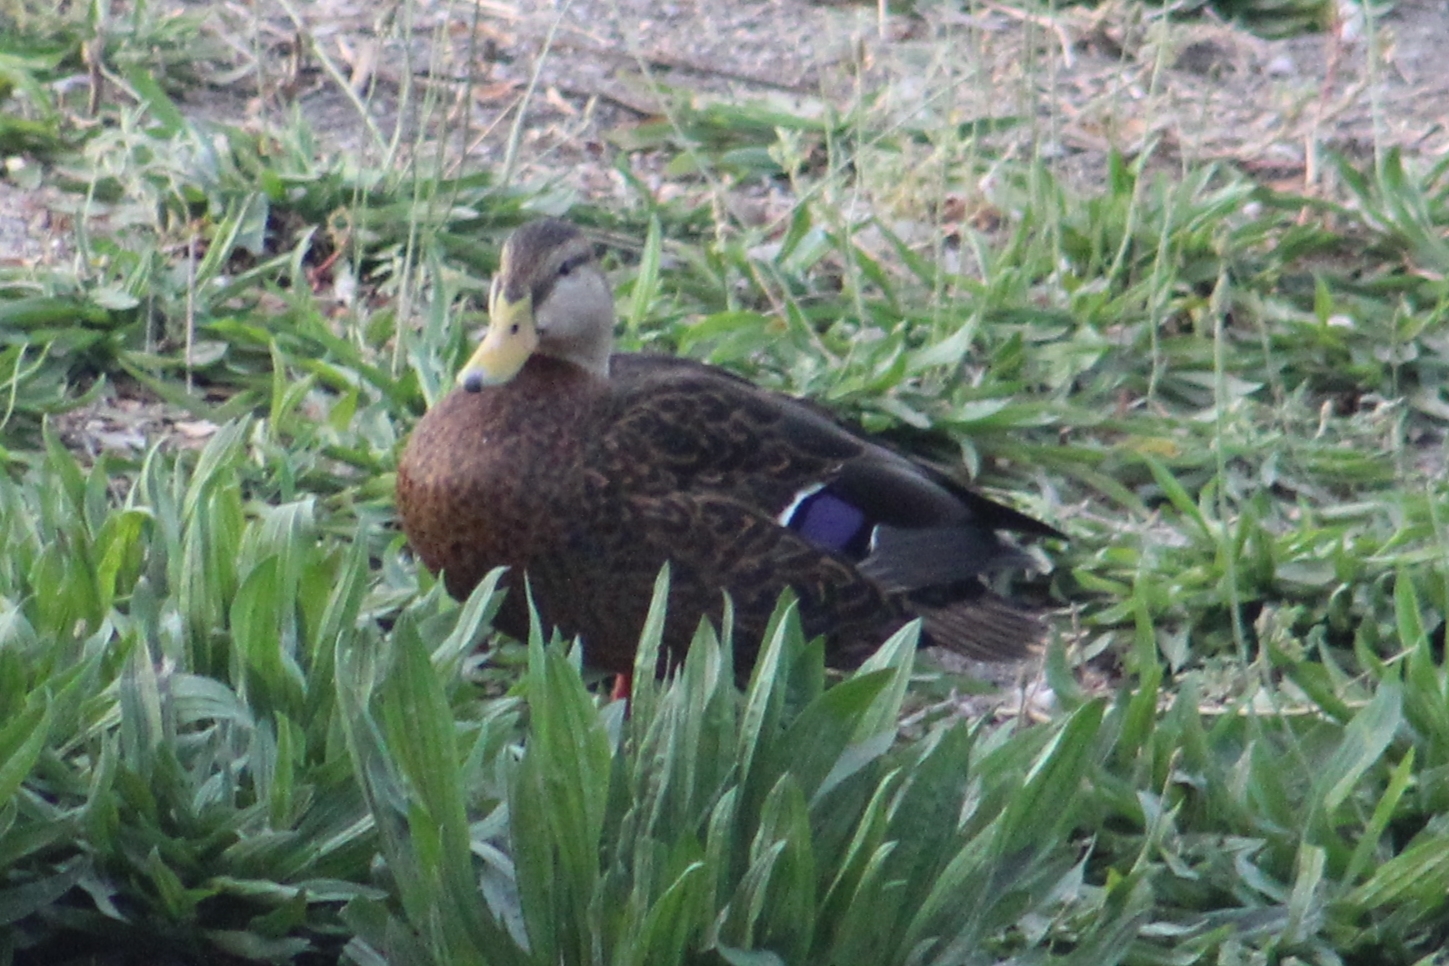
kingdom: Animalia
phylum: Chordata
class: Aves
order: Anseriformes
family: Anatidae
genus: Anas
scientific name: Anas diazi
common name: Mexican duck
